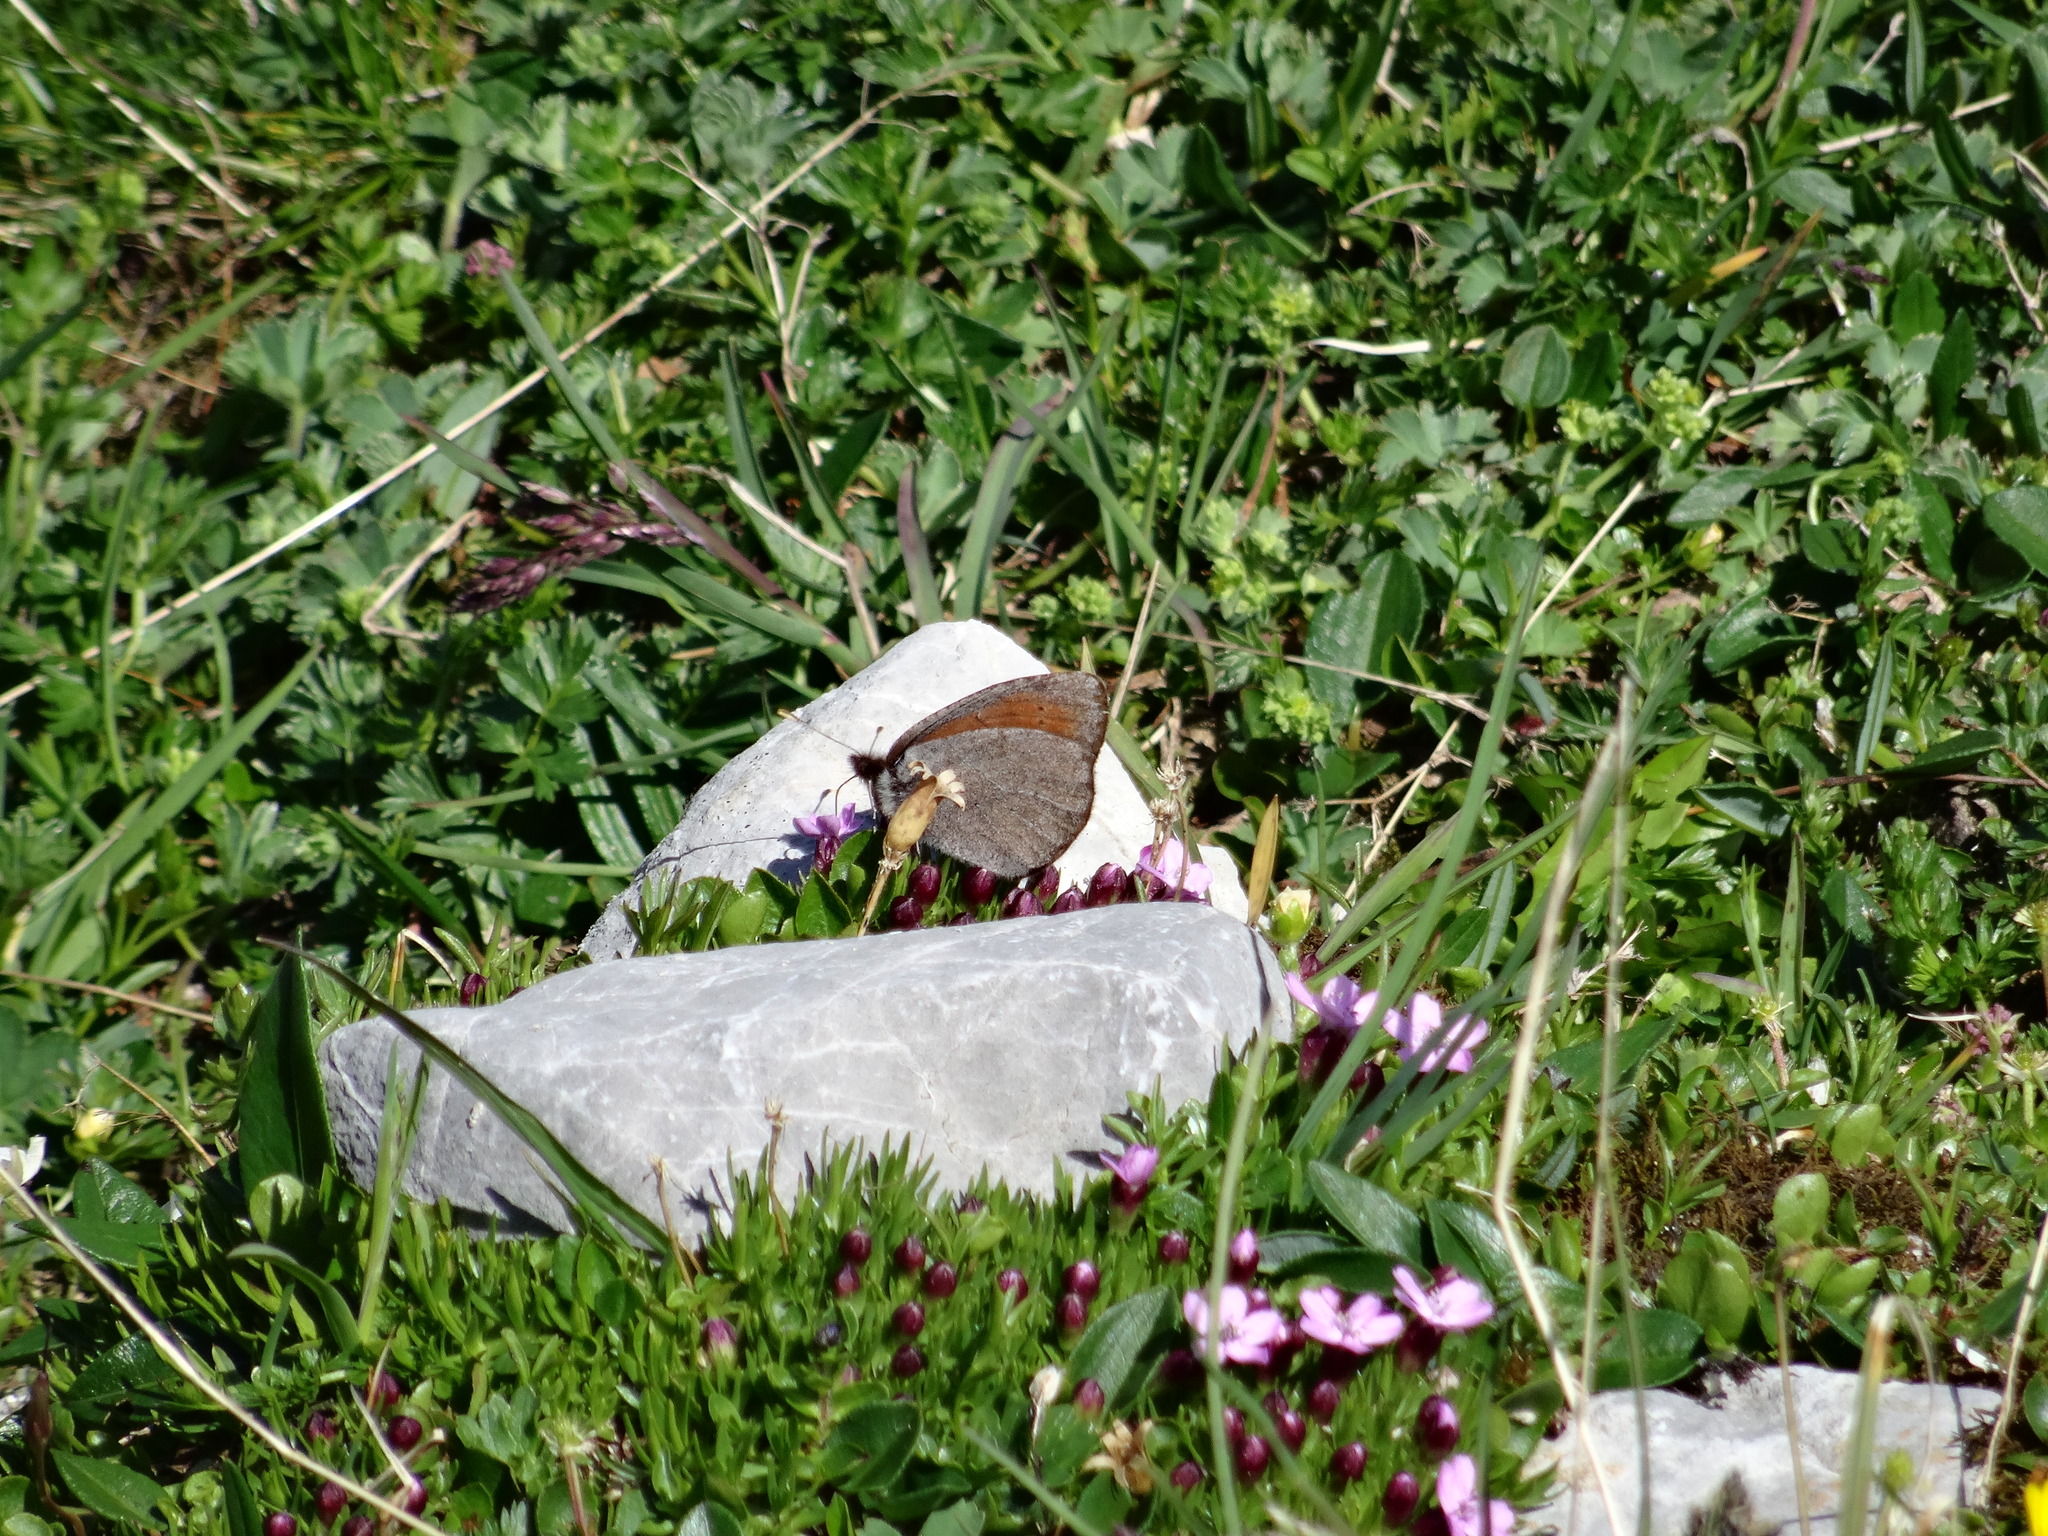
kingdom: Animalia
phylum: Arthropoda
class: Insecta
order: Lepidoptera
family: Nymphalidae
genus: Erebia
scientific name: Erebia pandrose
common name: Dewy ringlet
